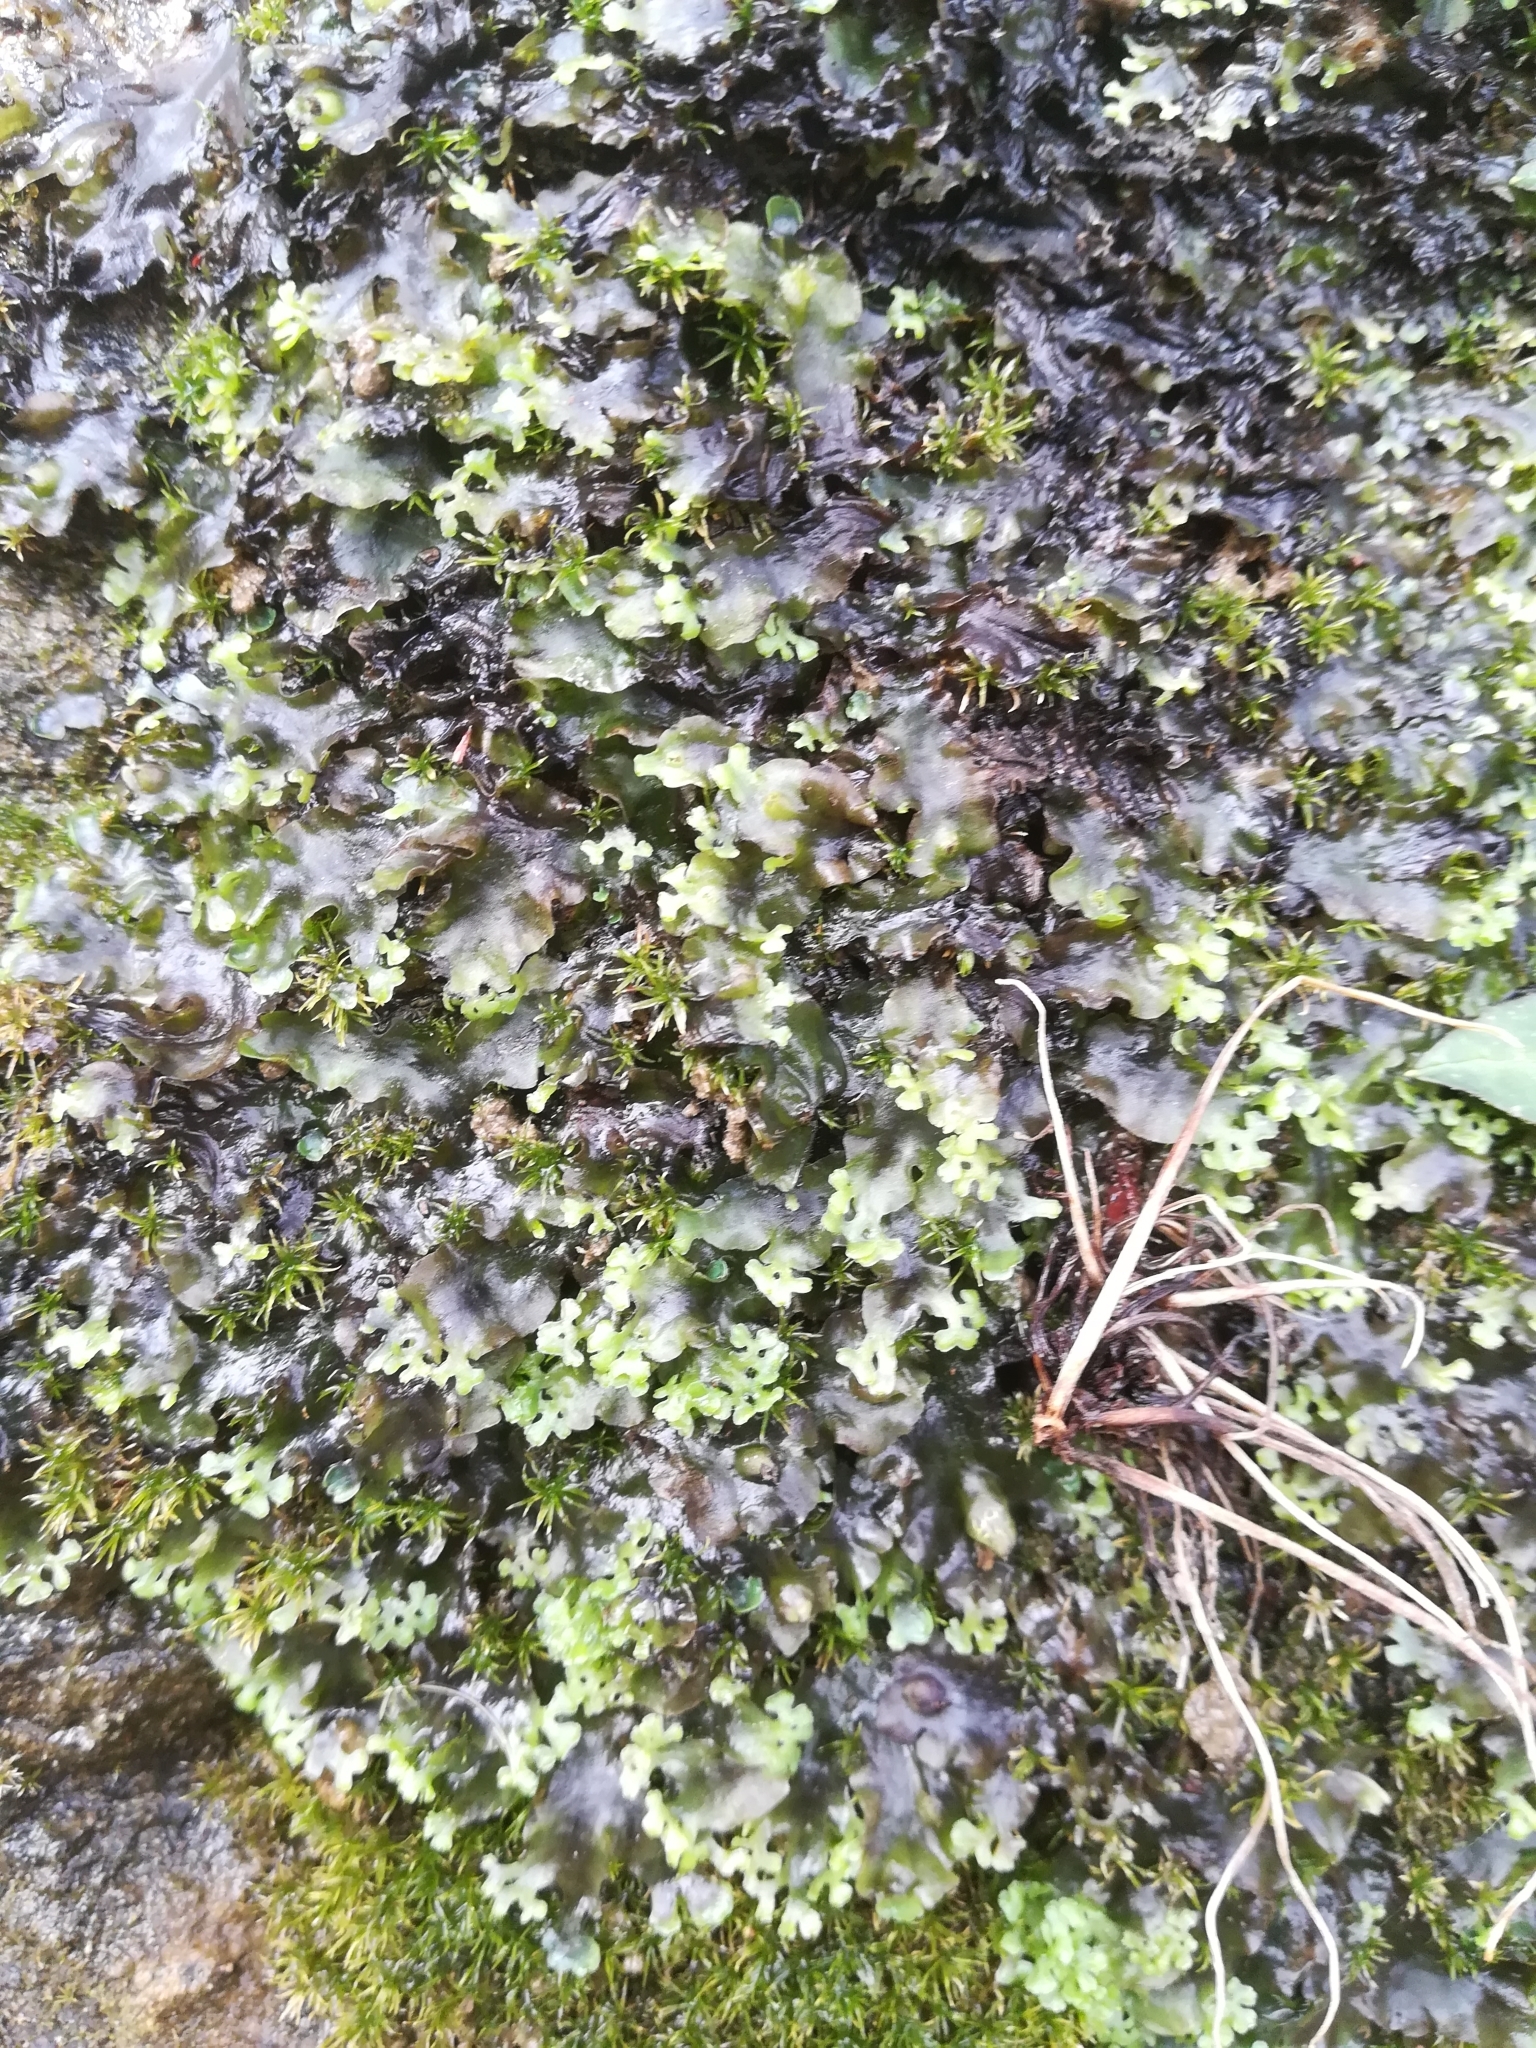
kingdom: Plantae
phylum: Marchantiophyta
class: Jungermanniopsida
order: Pelliales
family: Pelliaceae
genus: Apopellia
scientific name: Apopellia endiviifolia
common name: Endive pellia
